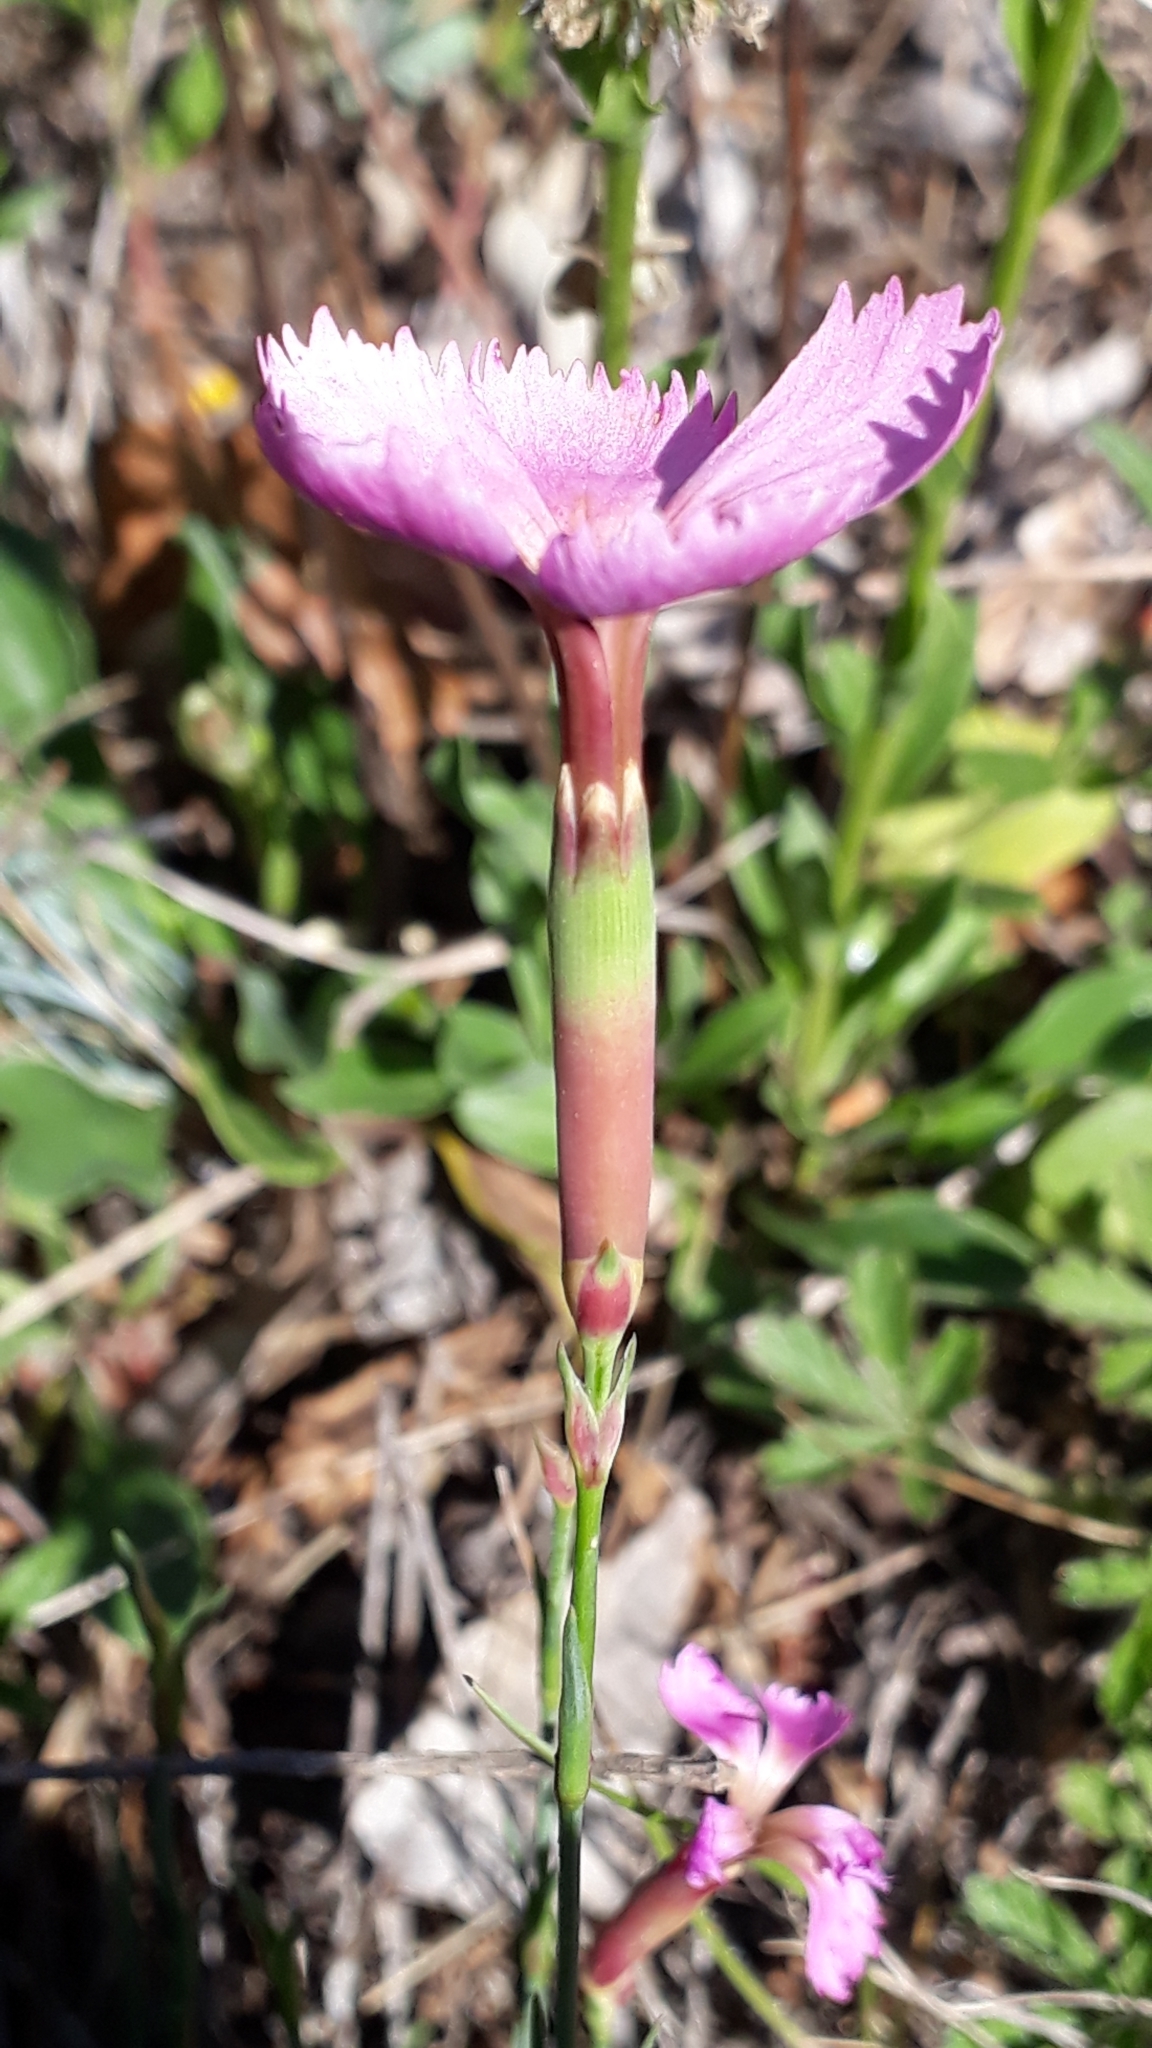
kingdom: Plantae
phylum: Tracheophyta
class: Magnoliopsida
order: Caryophyllales
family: Caryophyllaceae
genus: Dianthus
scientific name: Dianthus sylvestris
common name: Wood pink
